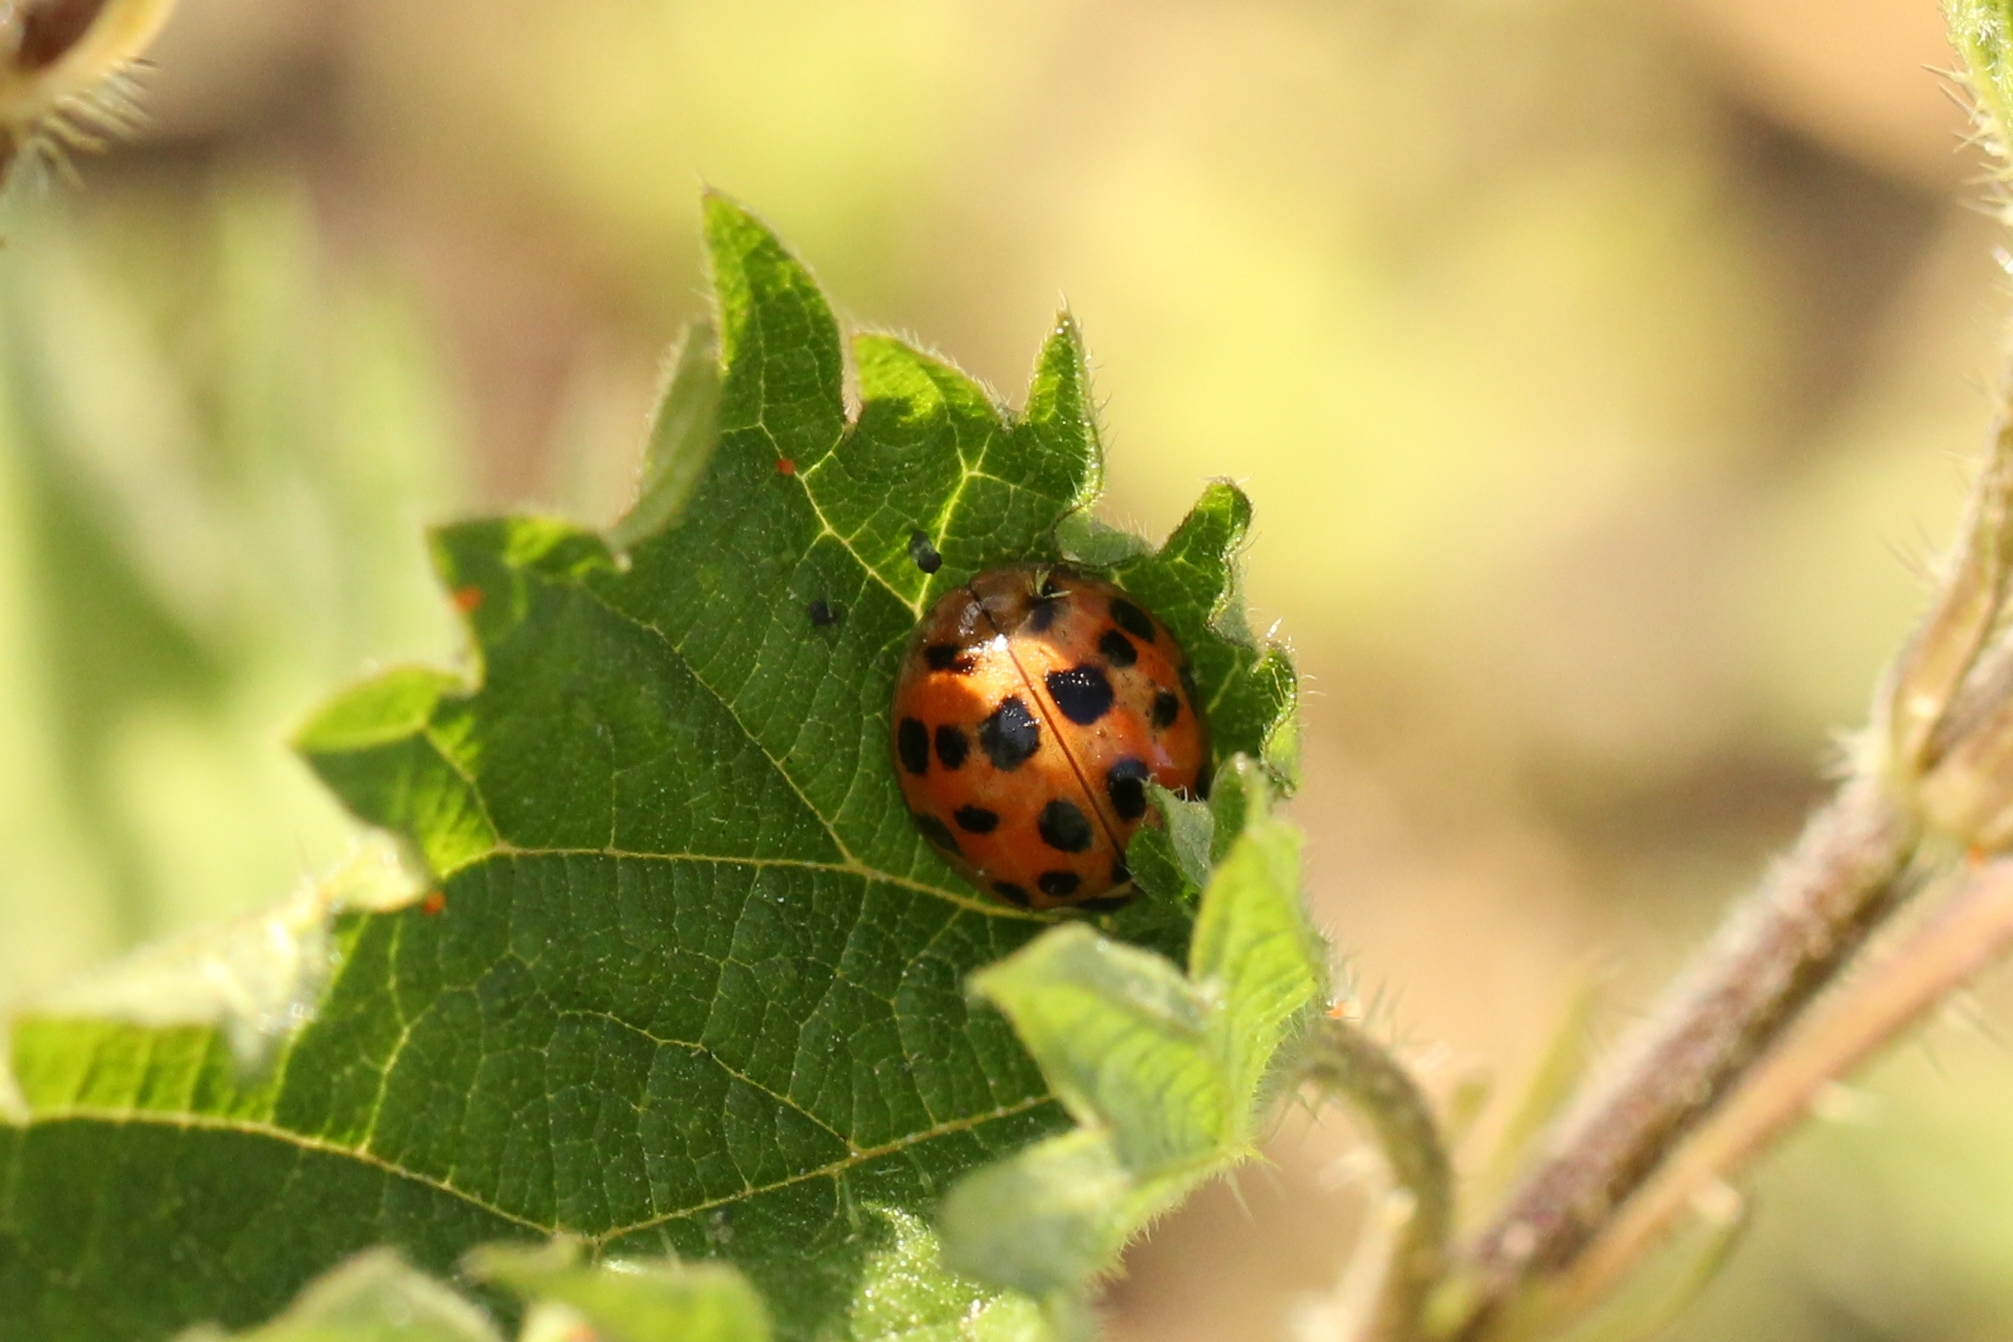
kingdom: Animalia
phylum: Arthropoda
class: Insecta
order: Coleoptera
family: Coccinellidae
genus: Harmonia
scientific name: Harmonia axyridis
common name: Harlequin ladybird
